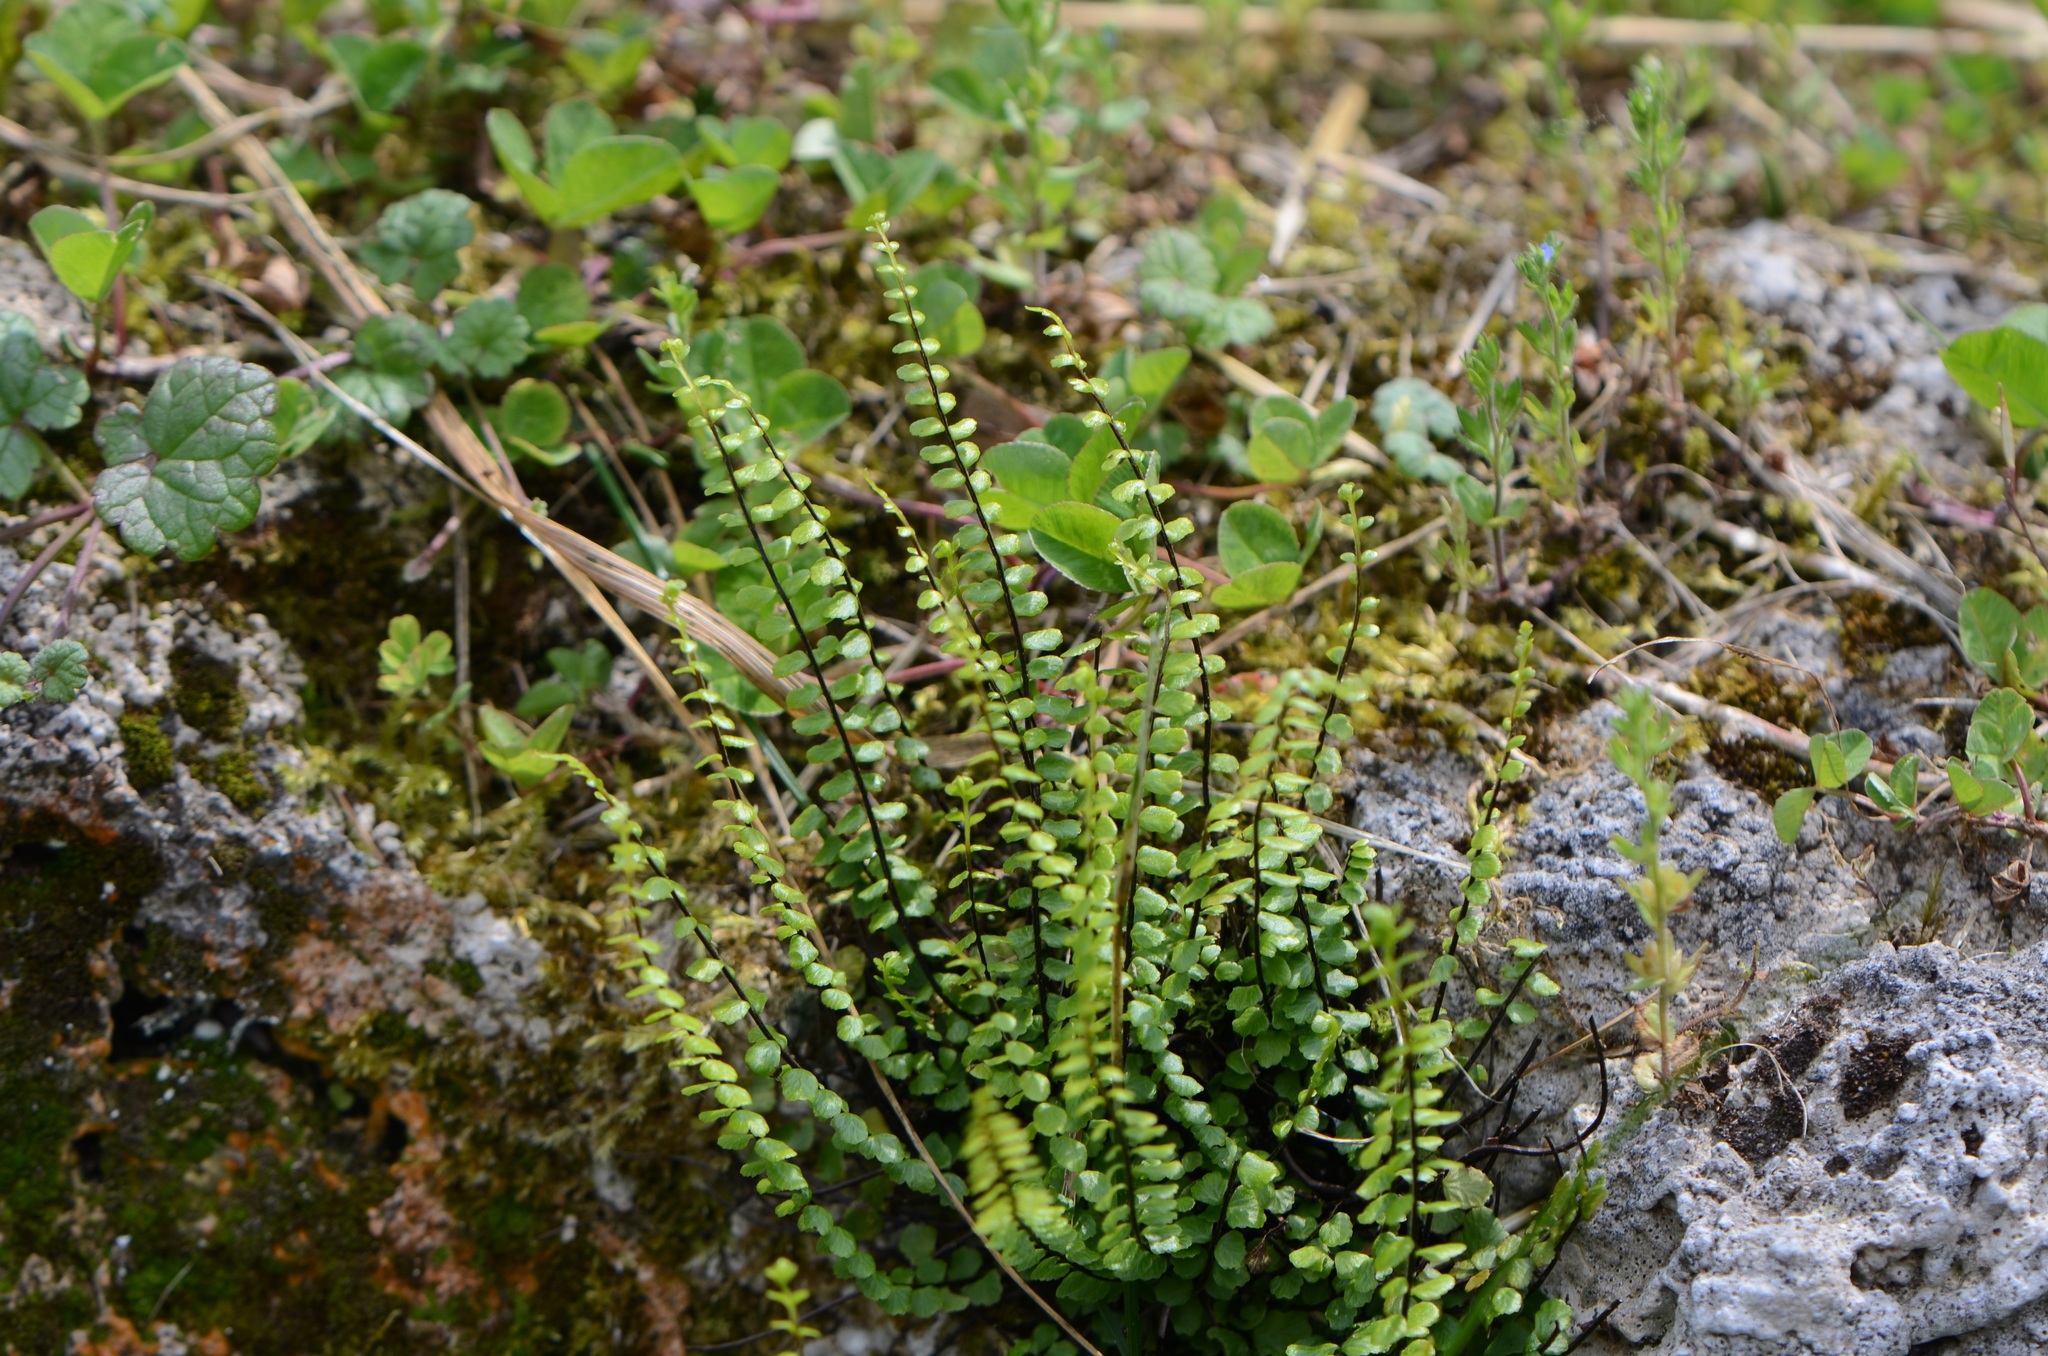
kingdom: Plantae
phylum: Tracheophyta
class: Polypodiopsida
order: Polypodiales
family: Aspleniaceae
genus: Asplenium
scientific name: Asplenium trichomanes
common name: Maidenhair spleenwort
